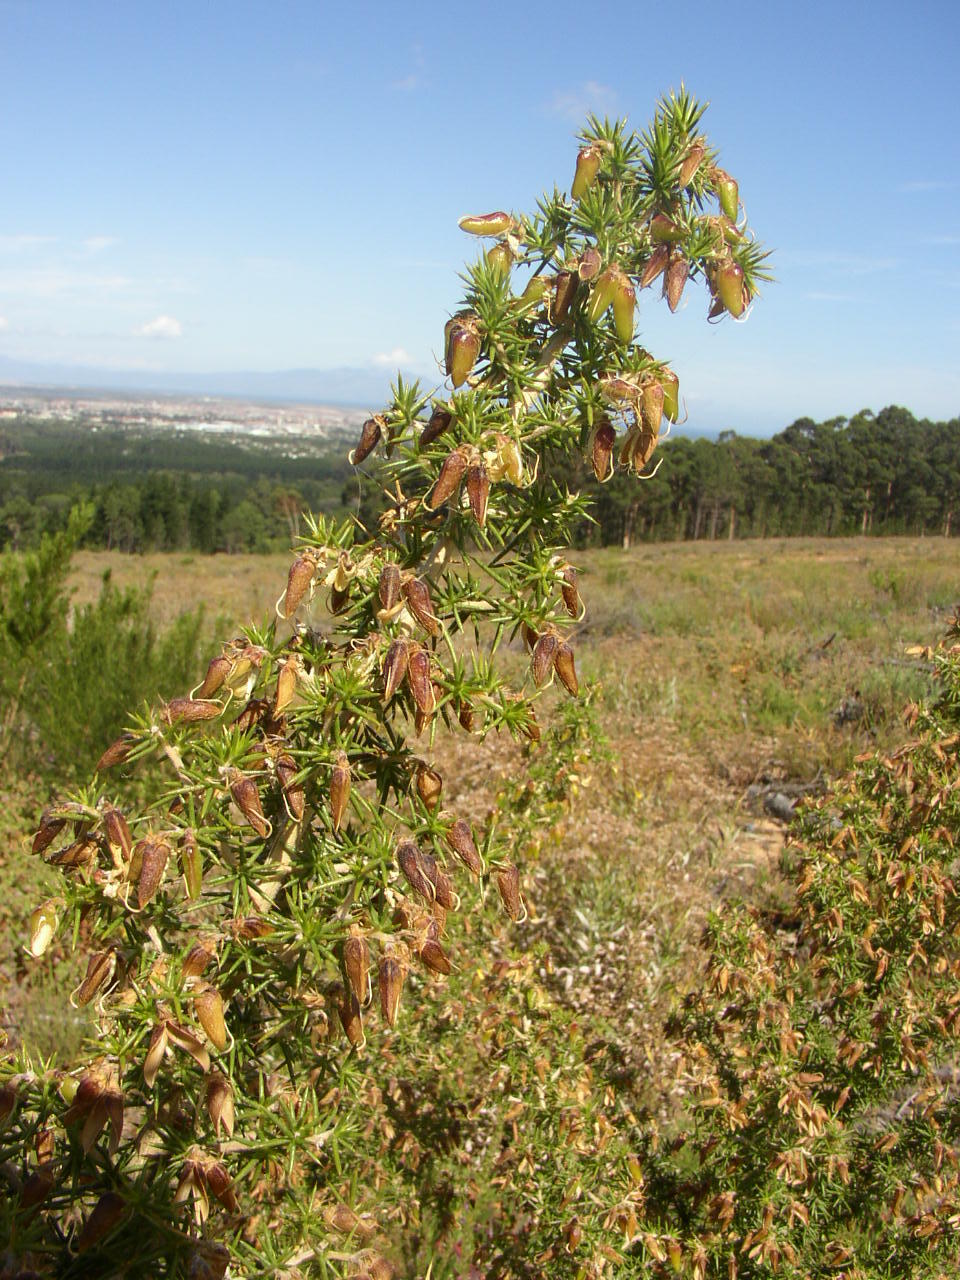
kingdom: Plantae
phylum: Tracheophyta
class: Magnoliopsida
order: Fabales
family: Fabaceae
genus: Aspalathus
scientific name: Aspalathus astroites
